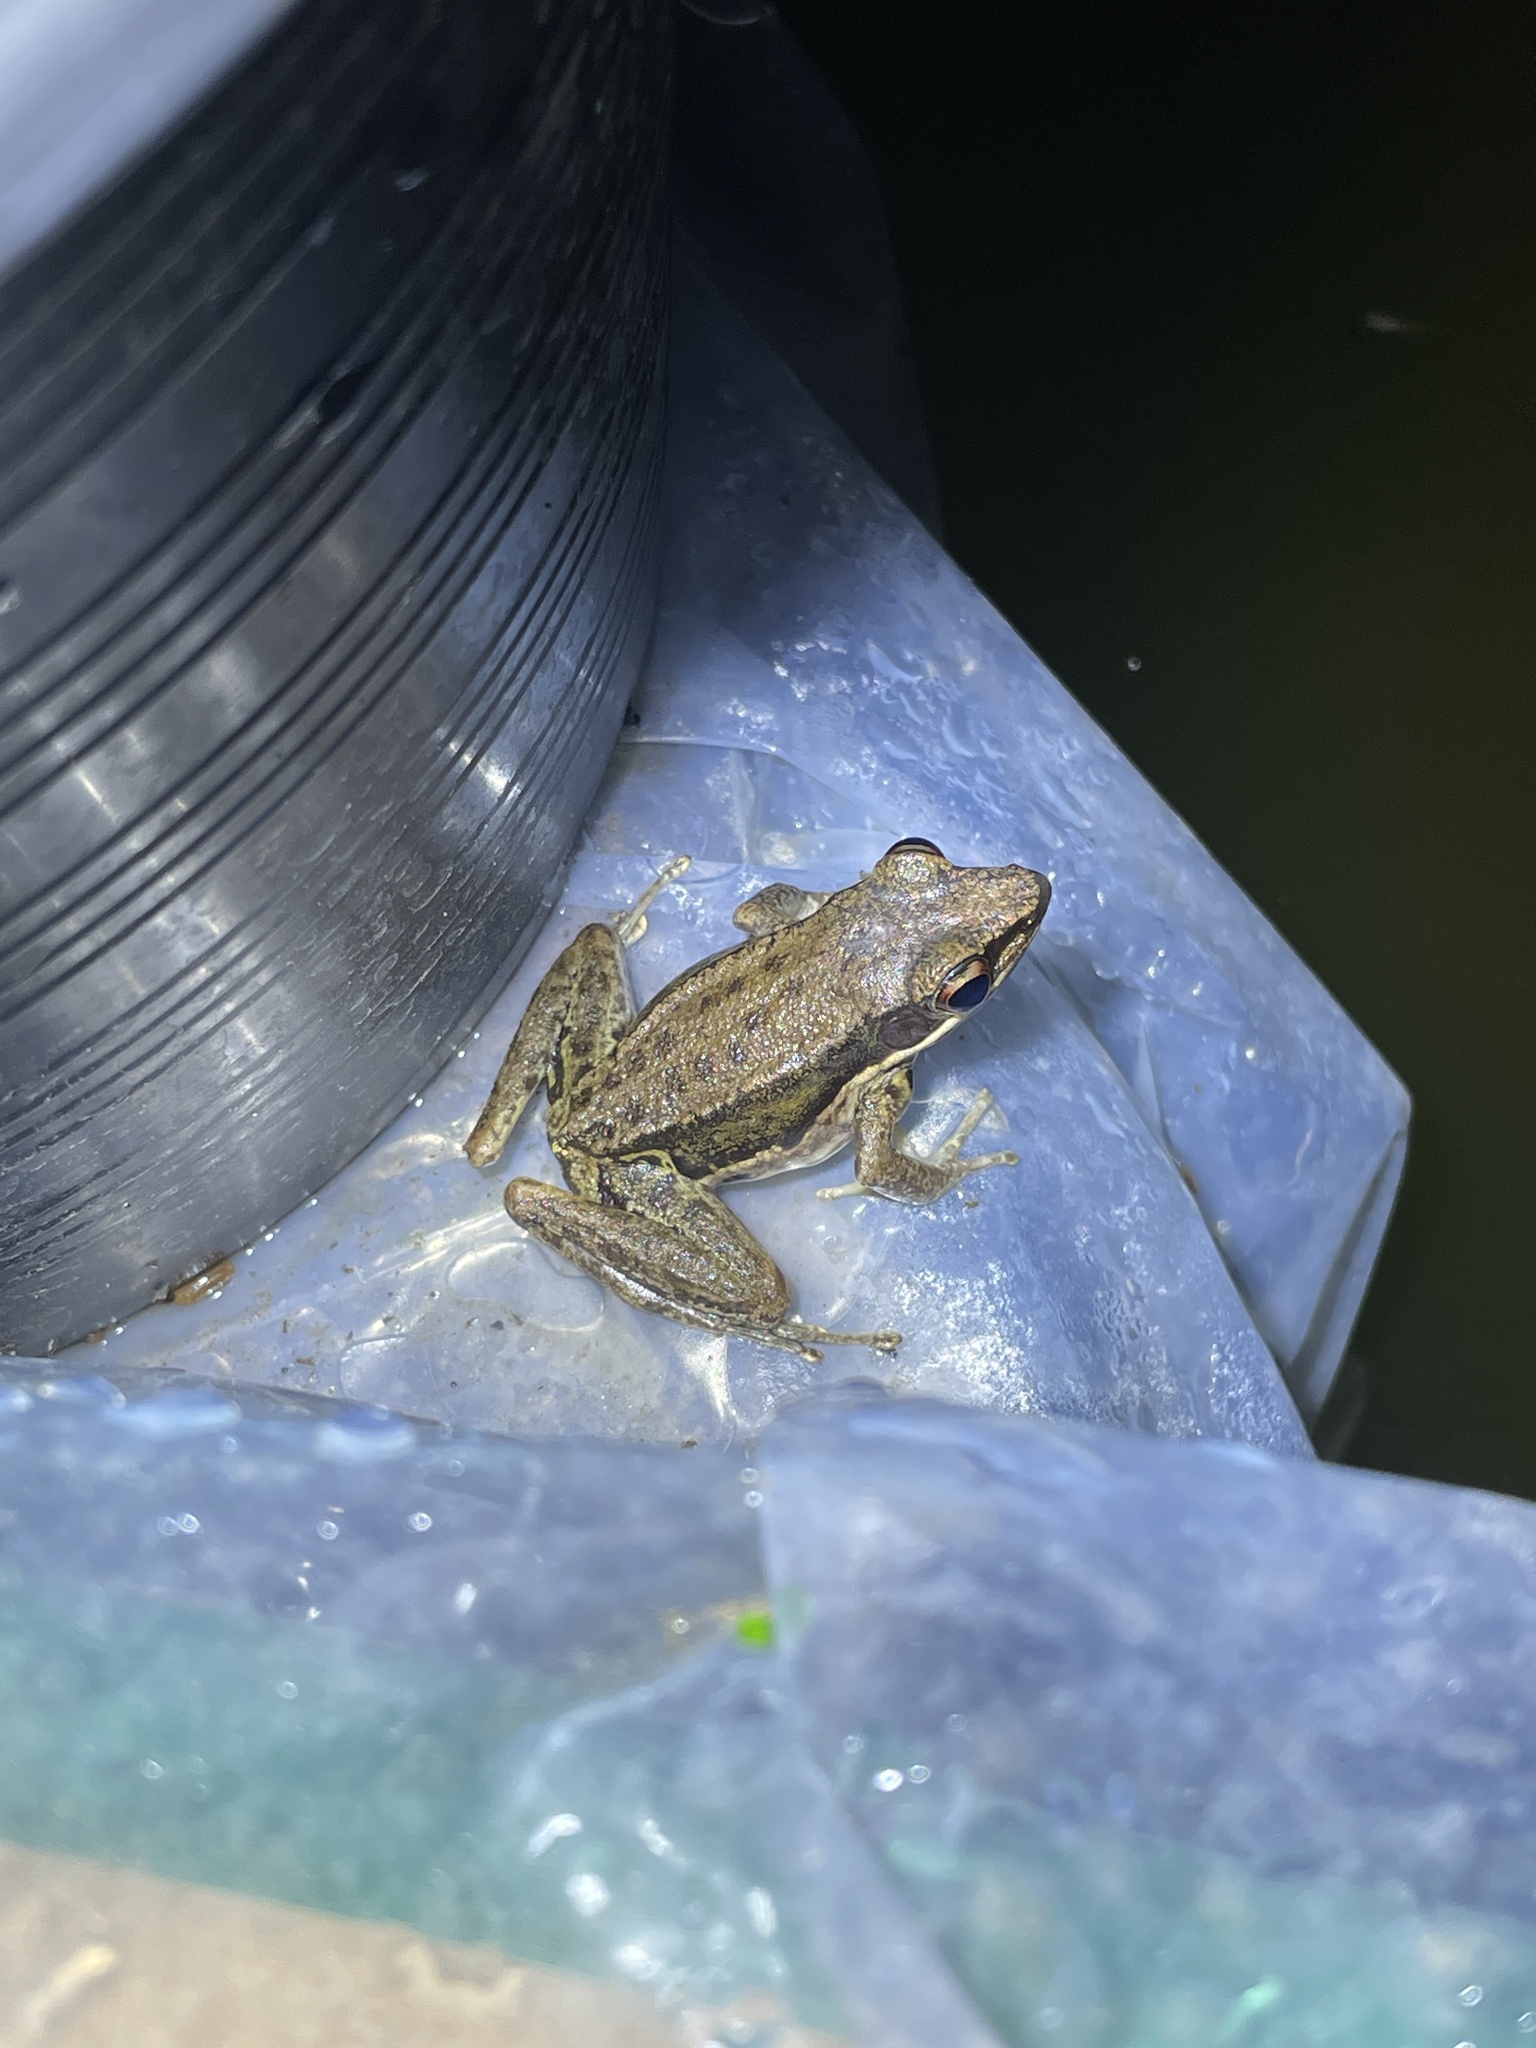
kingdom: Animalia
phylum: Chordata
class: Amphibia
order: Anura
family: Ranidae
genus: Sylvirana
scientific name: Sylvirana malayana
